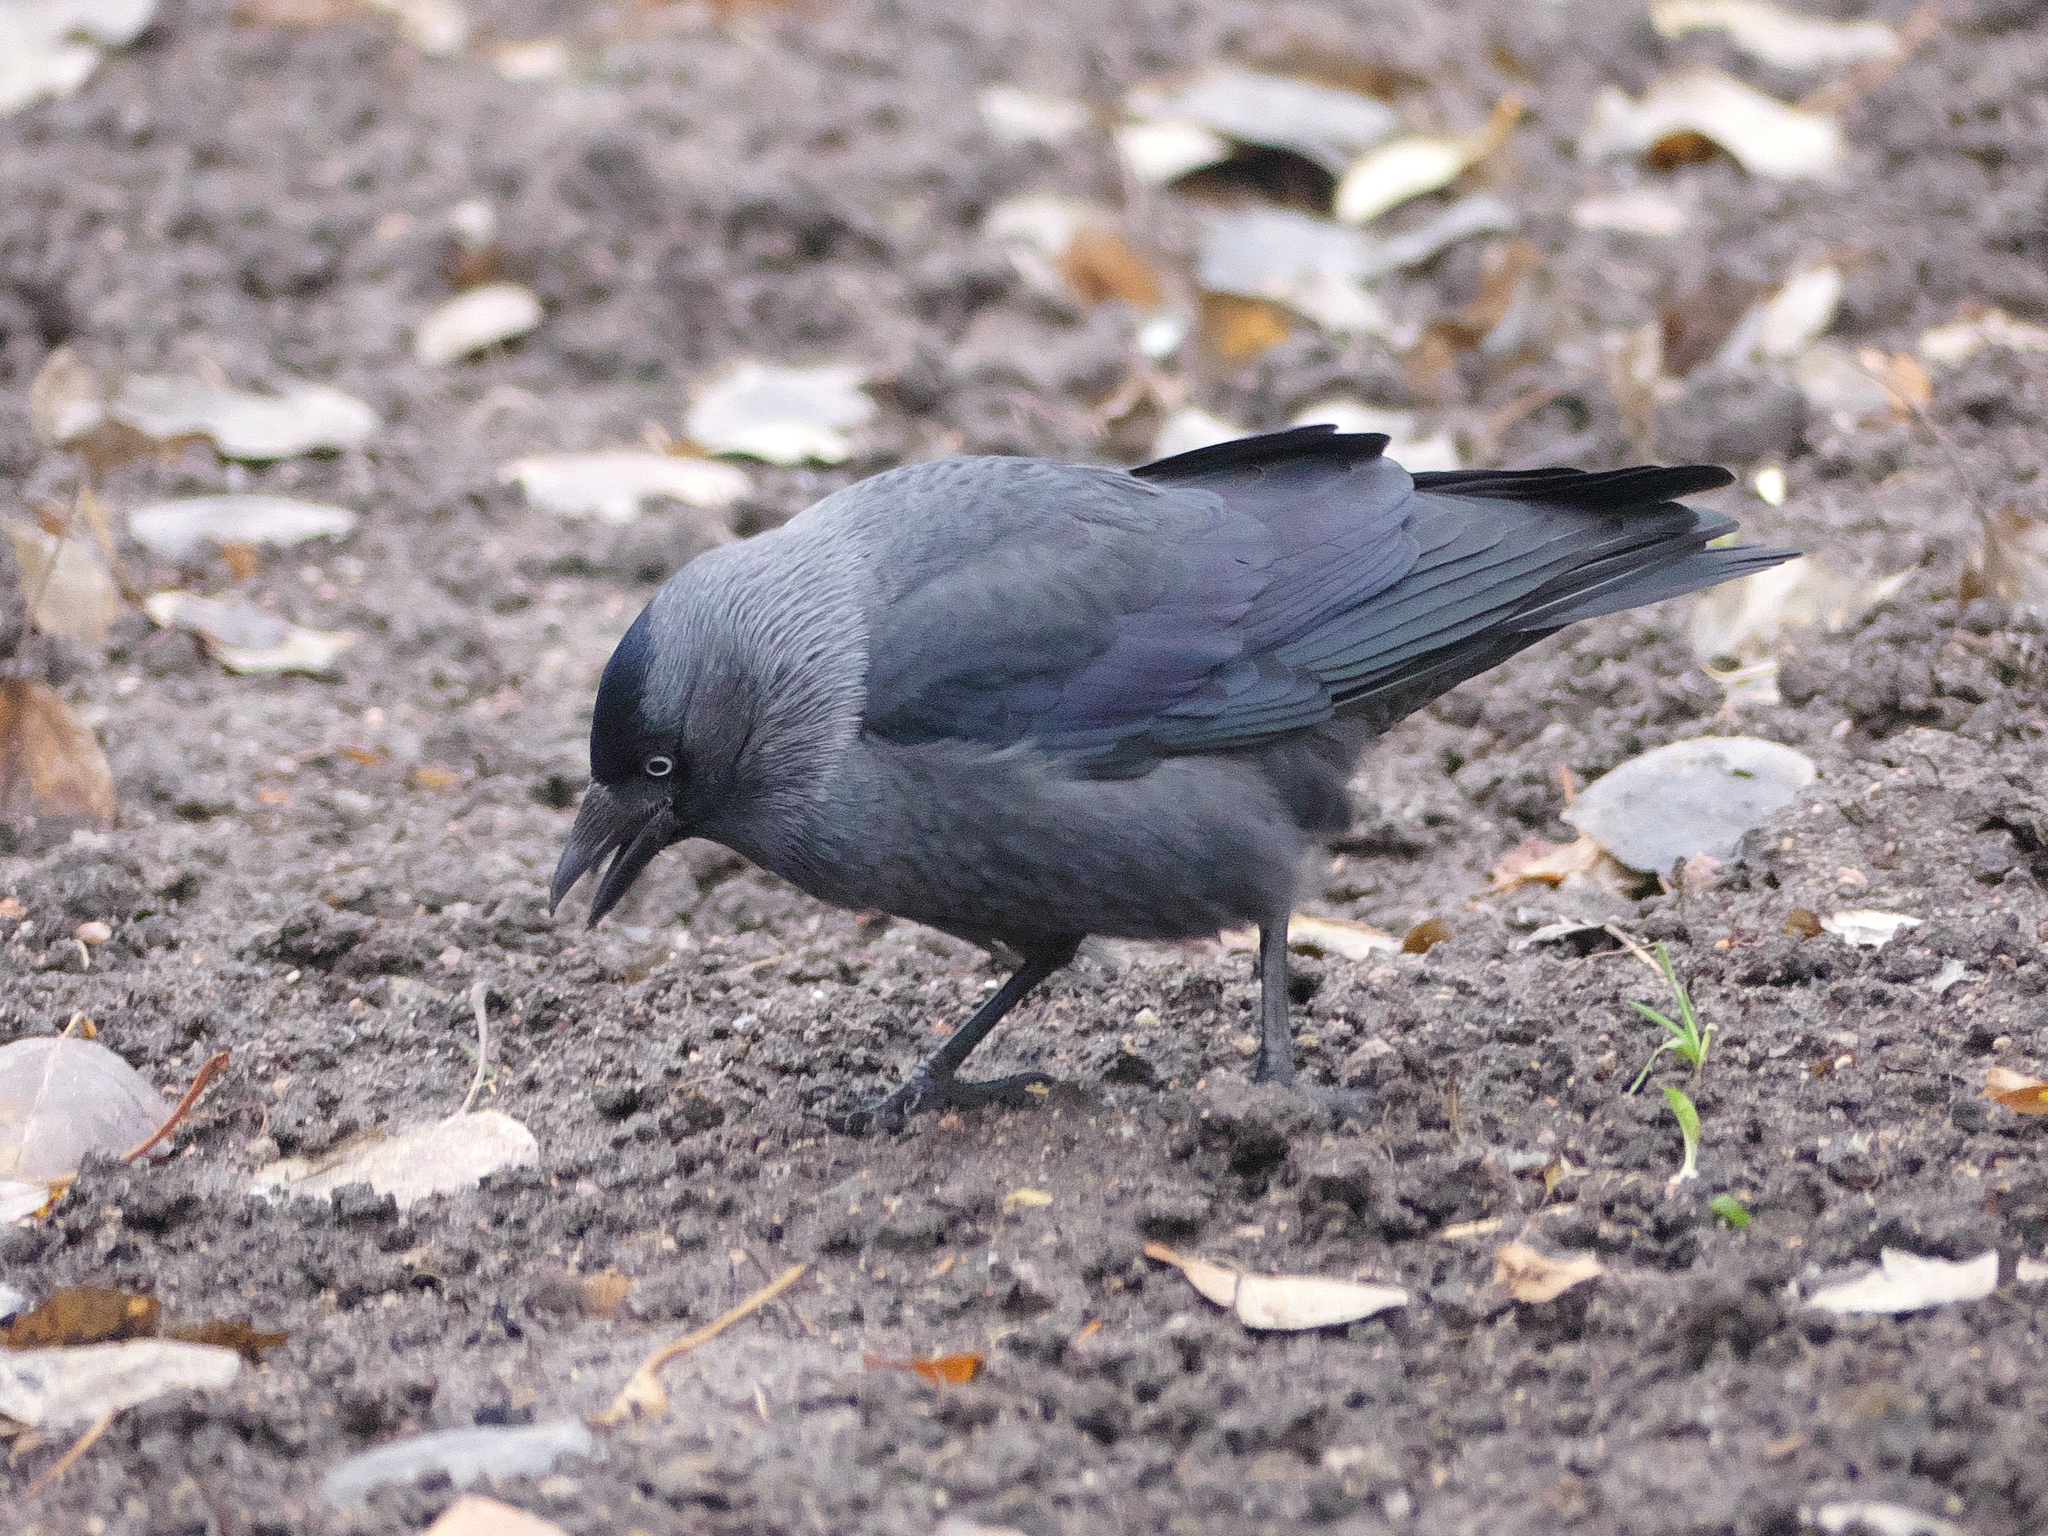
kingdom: Animalia
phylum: Chordata
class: Aves
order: Passeriformes
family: Corvidae
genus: Coloeus
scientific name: Coloeus monedula
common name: Western jackdaw
